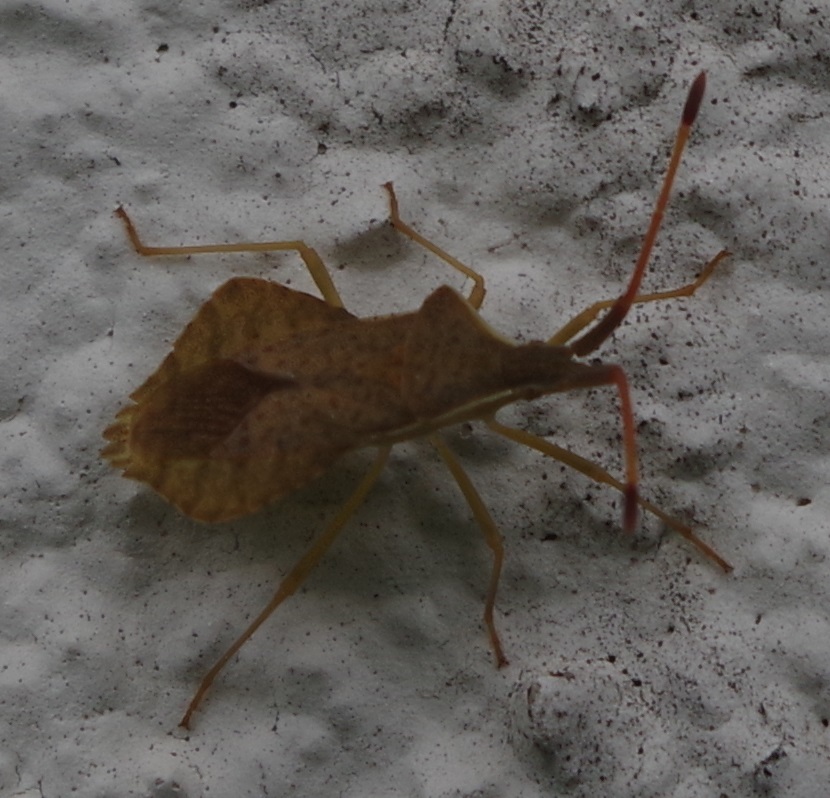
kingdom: Animalia
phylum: Arthropoda
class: Insecta
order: Hemiptera
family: Coreidae
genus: Syromastus
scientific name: Syromastus rhombeus
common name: Rhombic leatherbug
